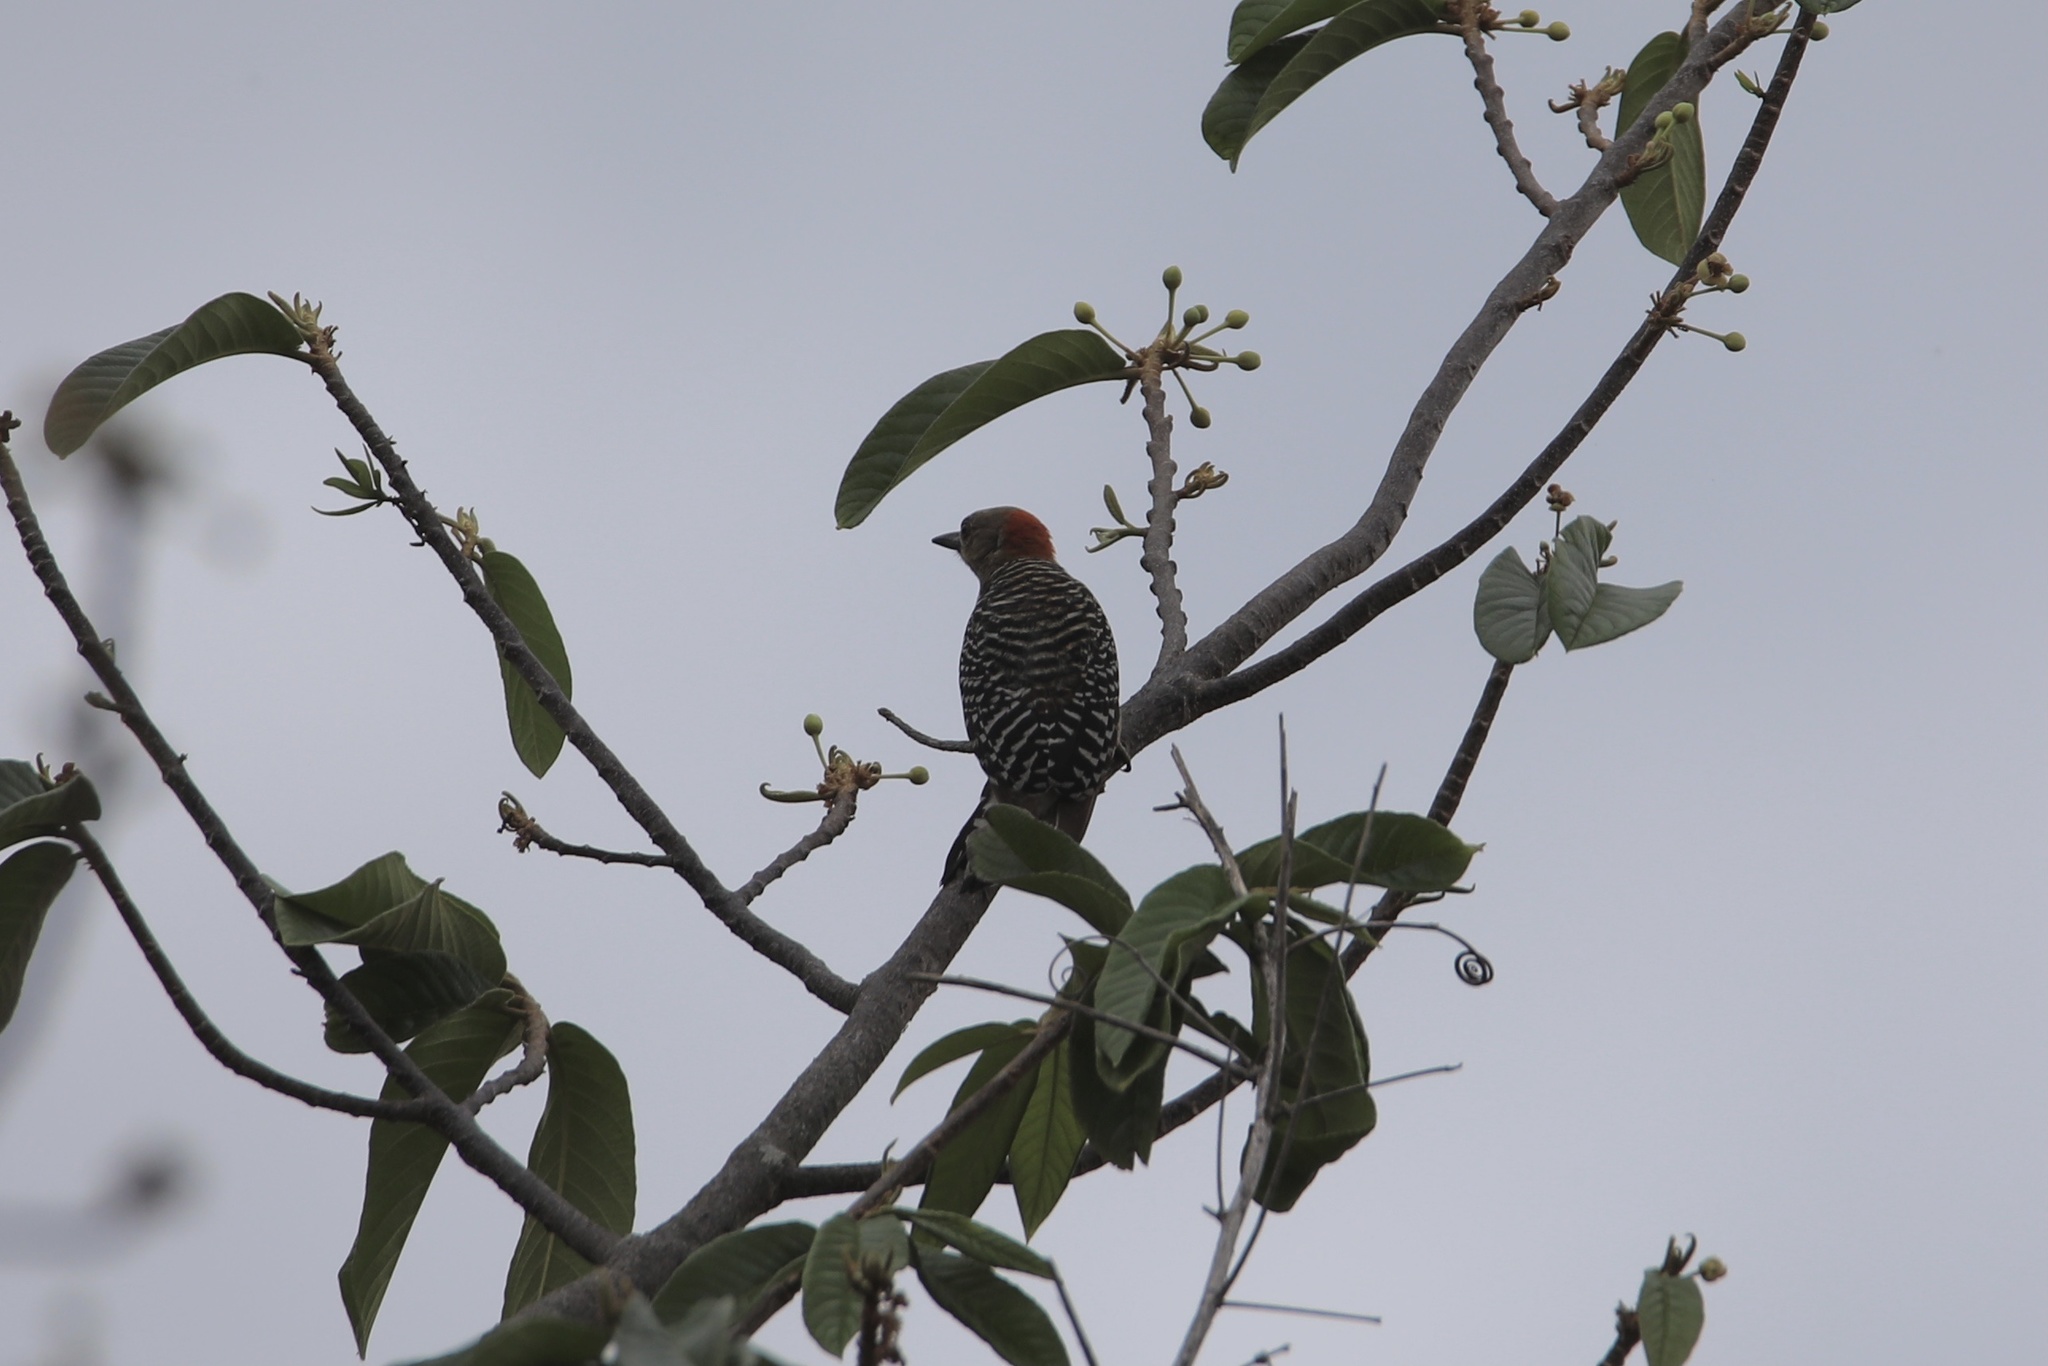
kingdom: Animalia
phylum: Chordata
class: Aves
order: Piciformes
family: Picidae
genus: Melanerpes
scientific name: Melanerpes rubricapillus
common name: Red-crowned woodpecker
